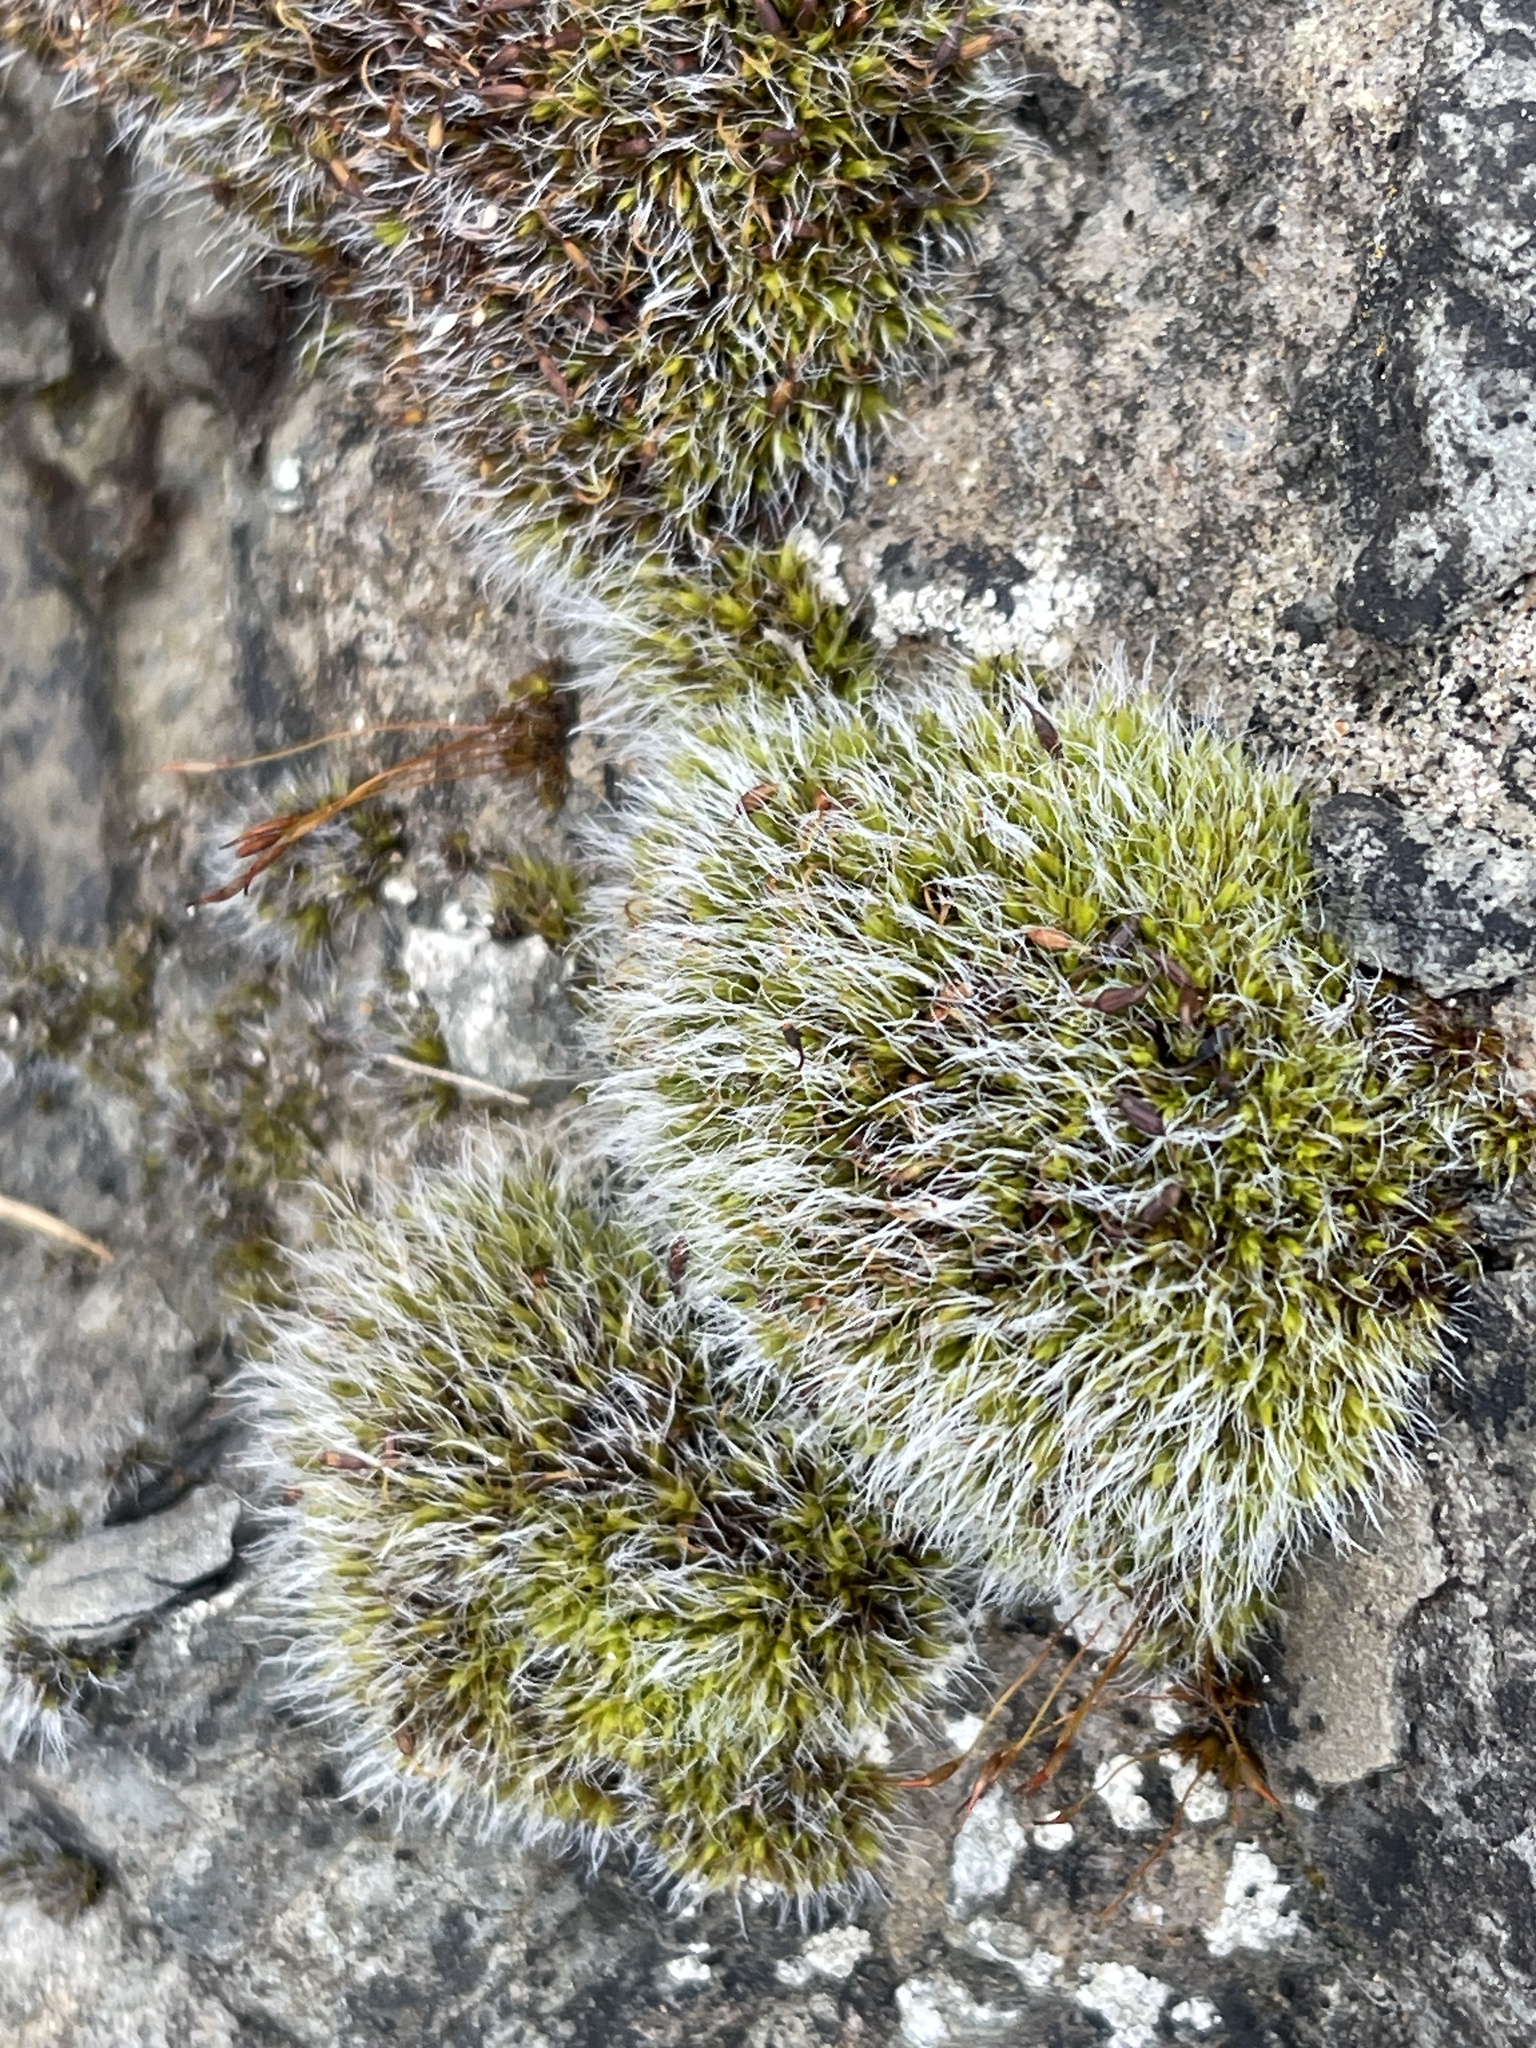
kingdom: Plantae
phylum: Bryophyta
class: Bryopsida
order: Grimmiales
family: Grimmiaceae
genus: Grimmia
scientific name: Grimmia pulvinata
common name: Grey-cushioned grimmia
